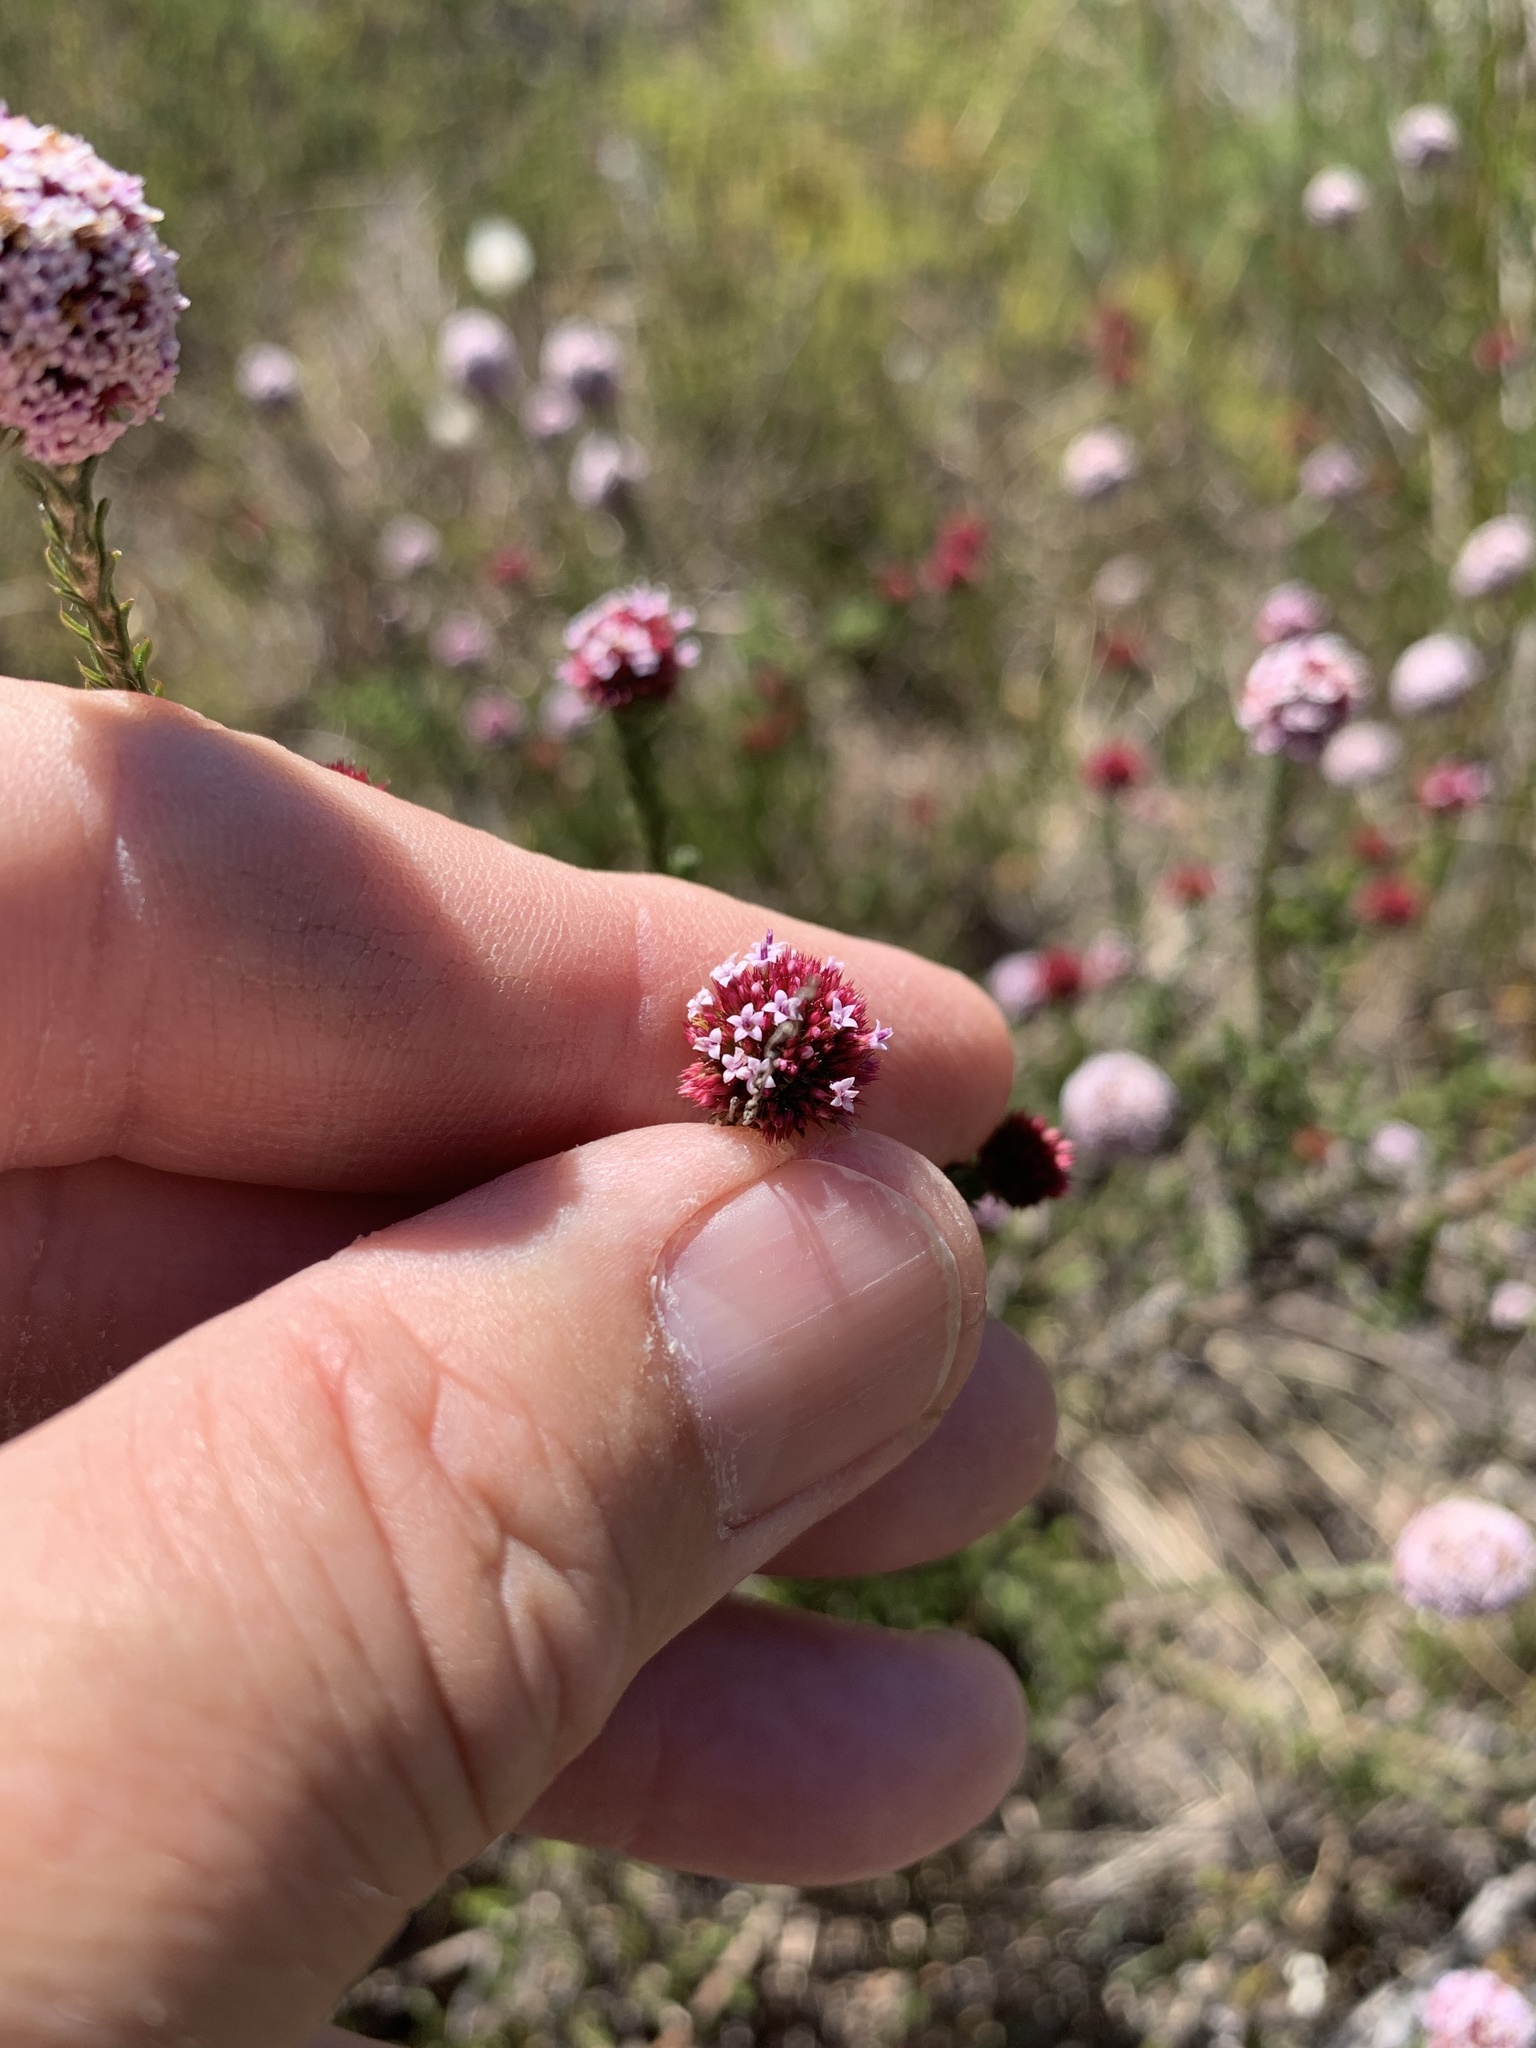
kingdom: Plantae
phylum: Tracheophyta
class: Magnoliopsida
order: Asterales
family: Asteraceae
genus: Stoebe
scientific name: Stoebe capitata
